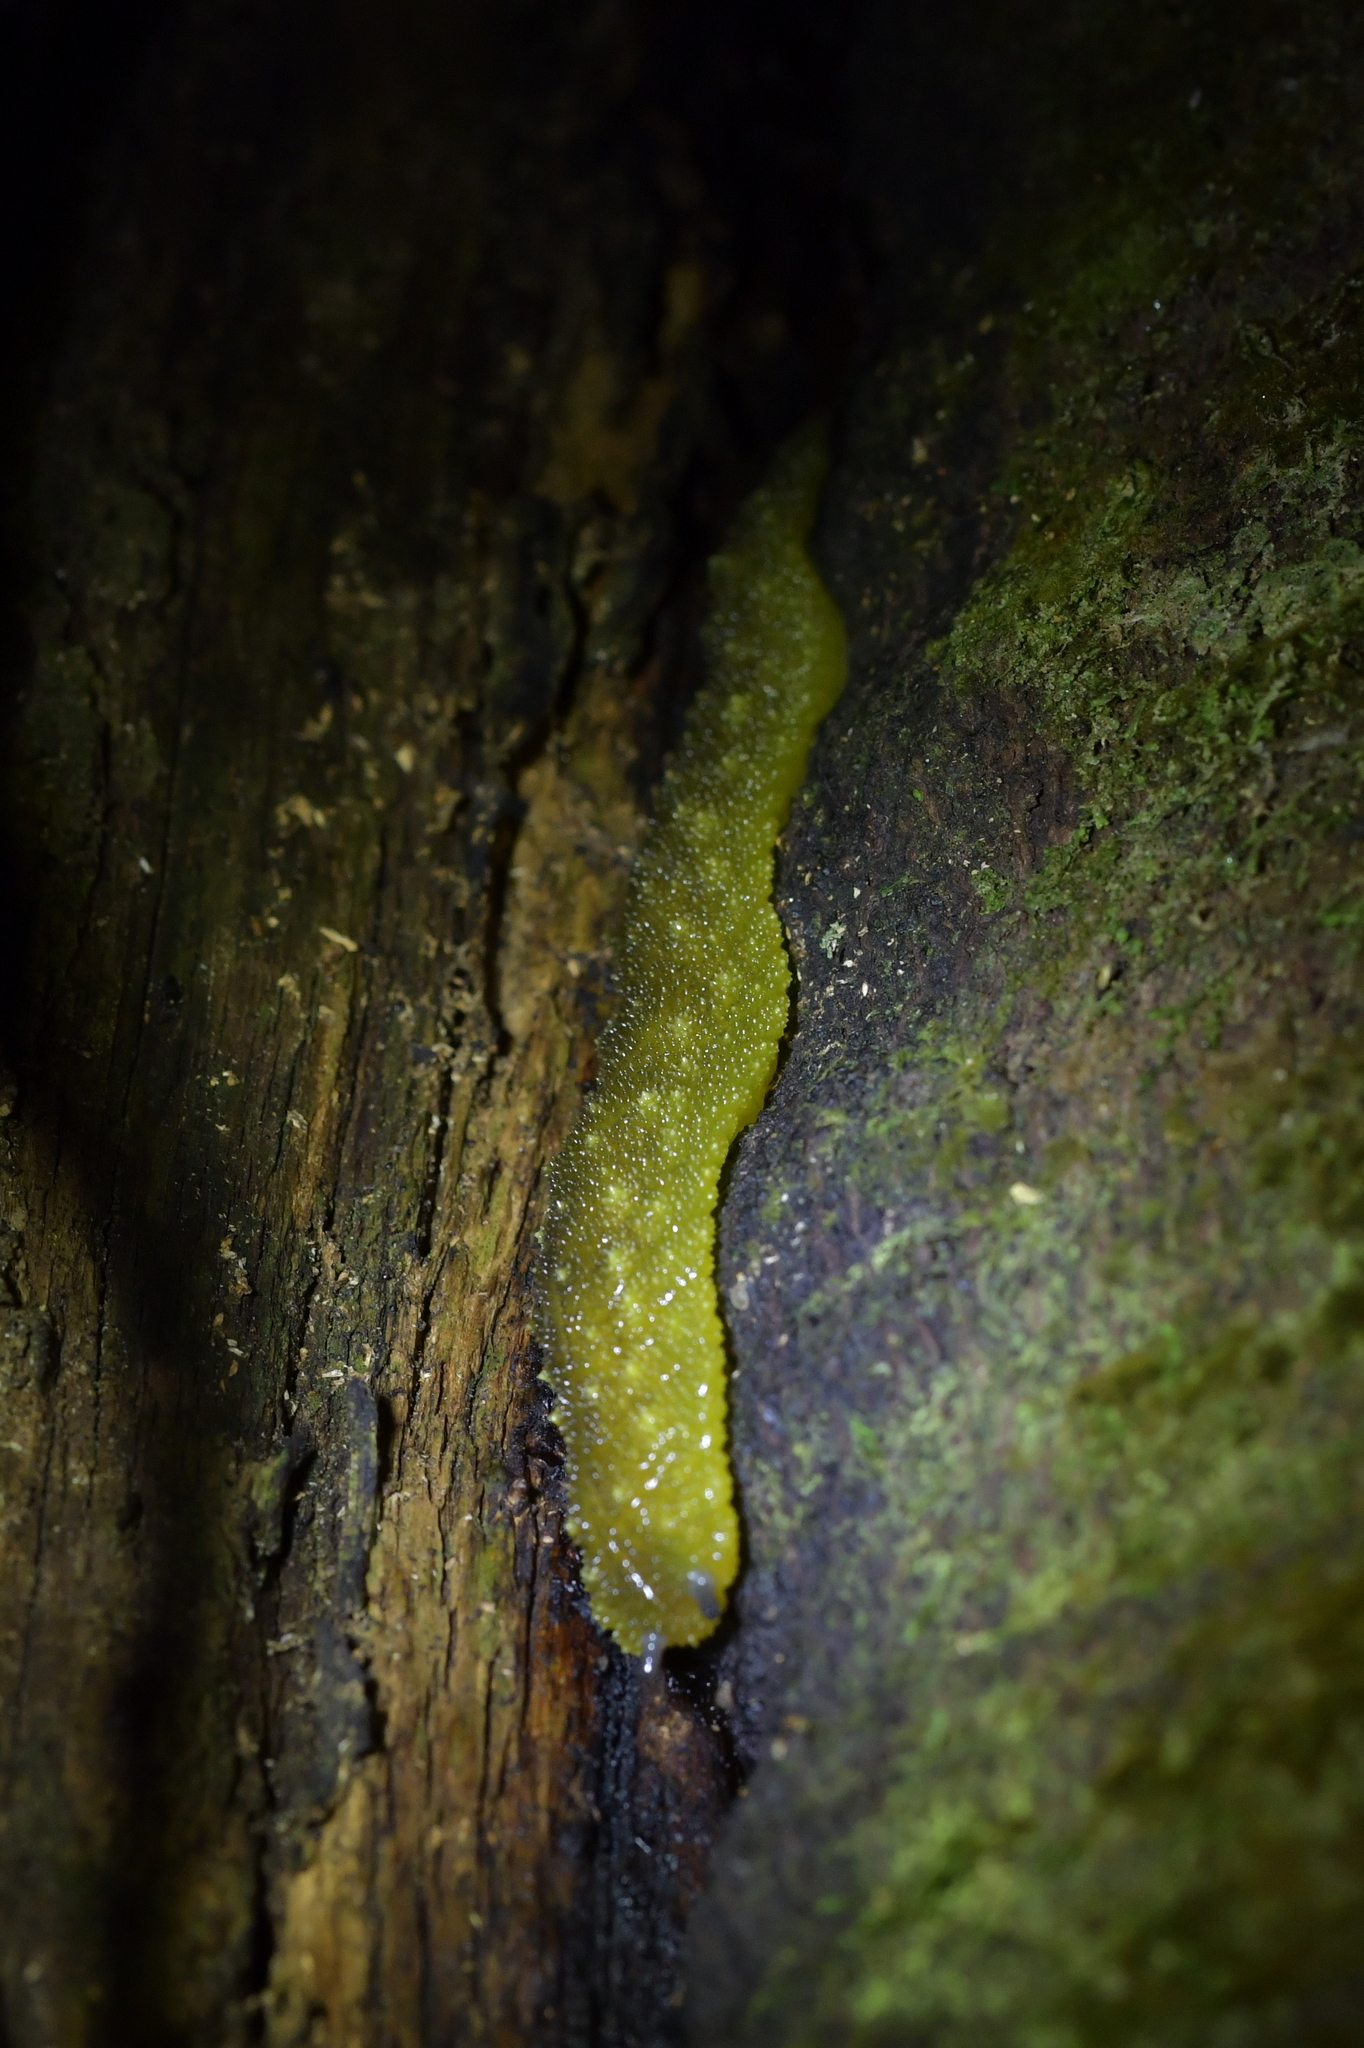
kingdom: Animalia
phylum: Mollusca
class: Gastropoda
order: Stylommatophora
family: Athoracophoridae
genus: Athoracophorus
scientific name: Athoracophorus papillatus
